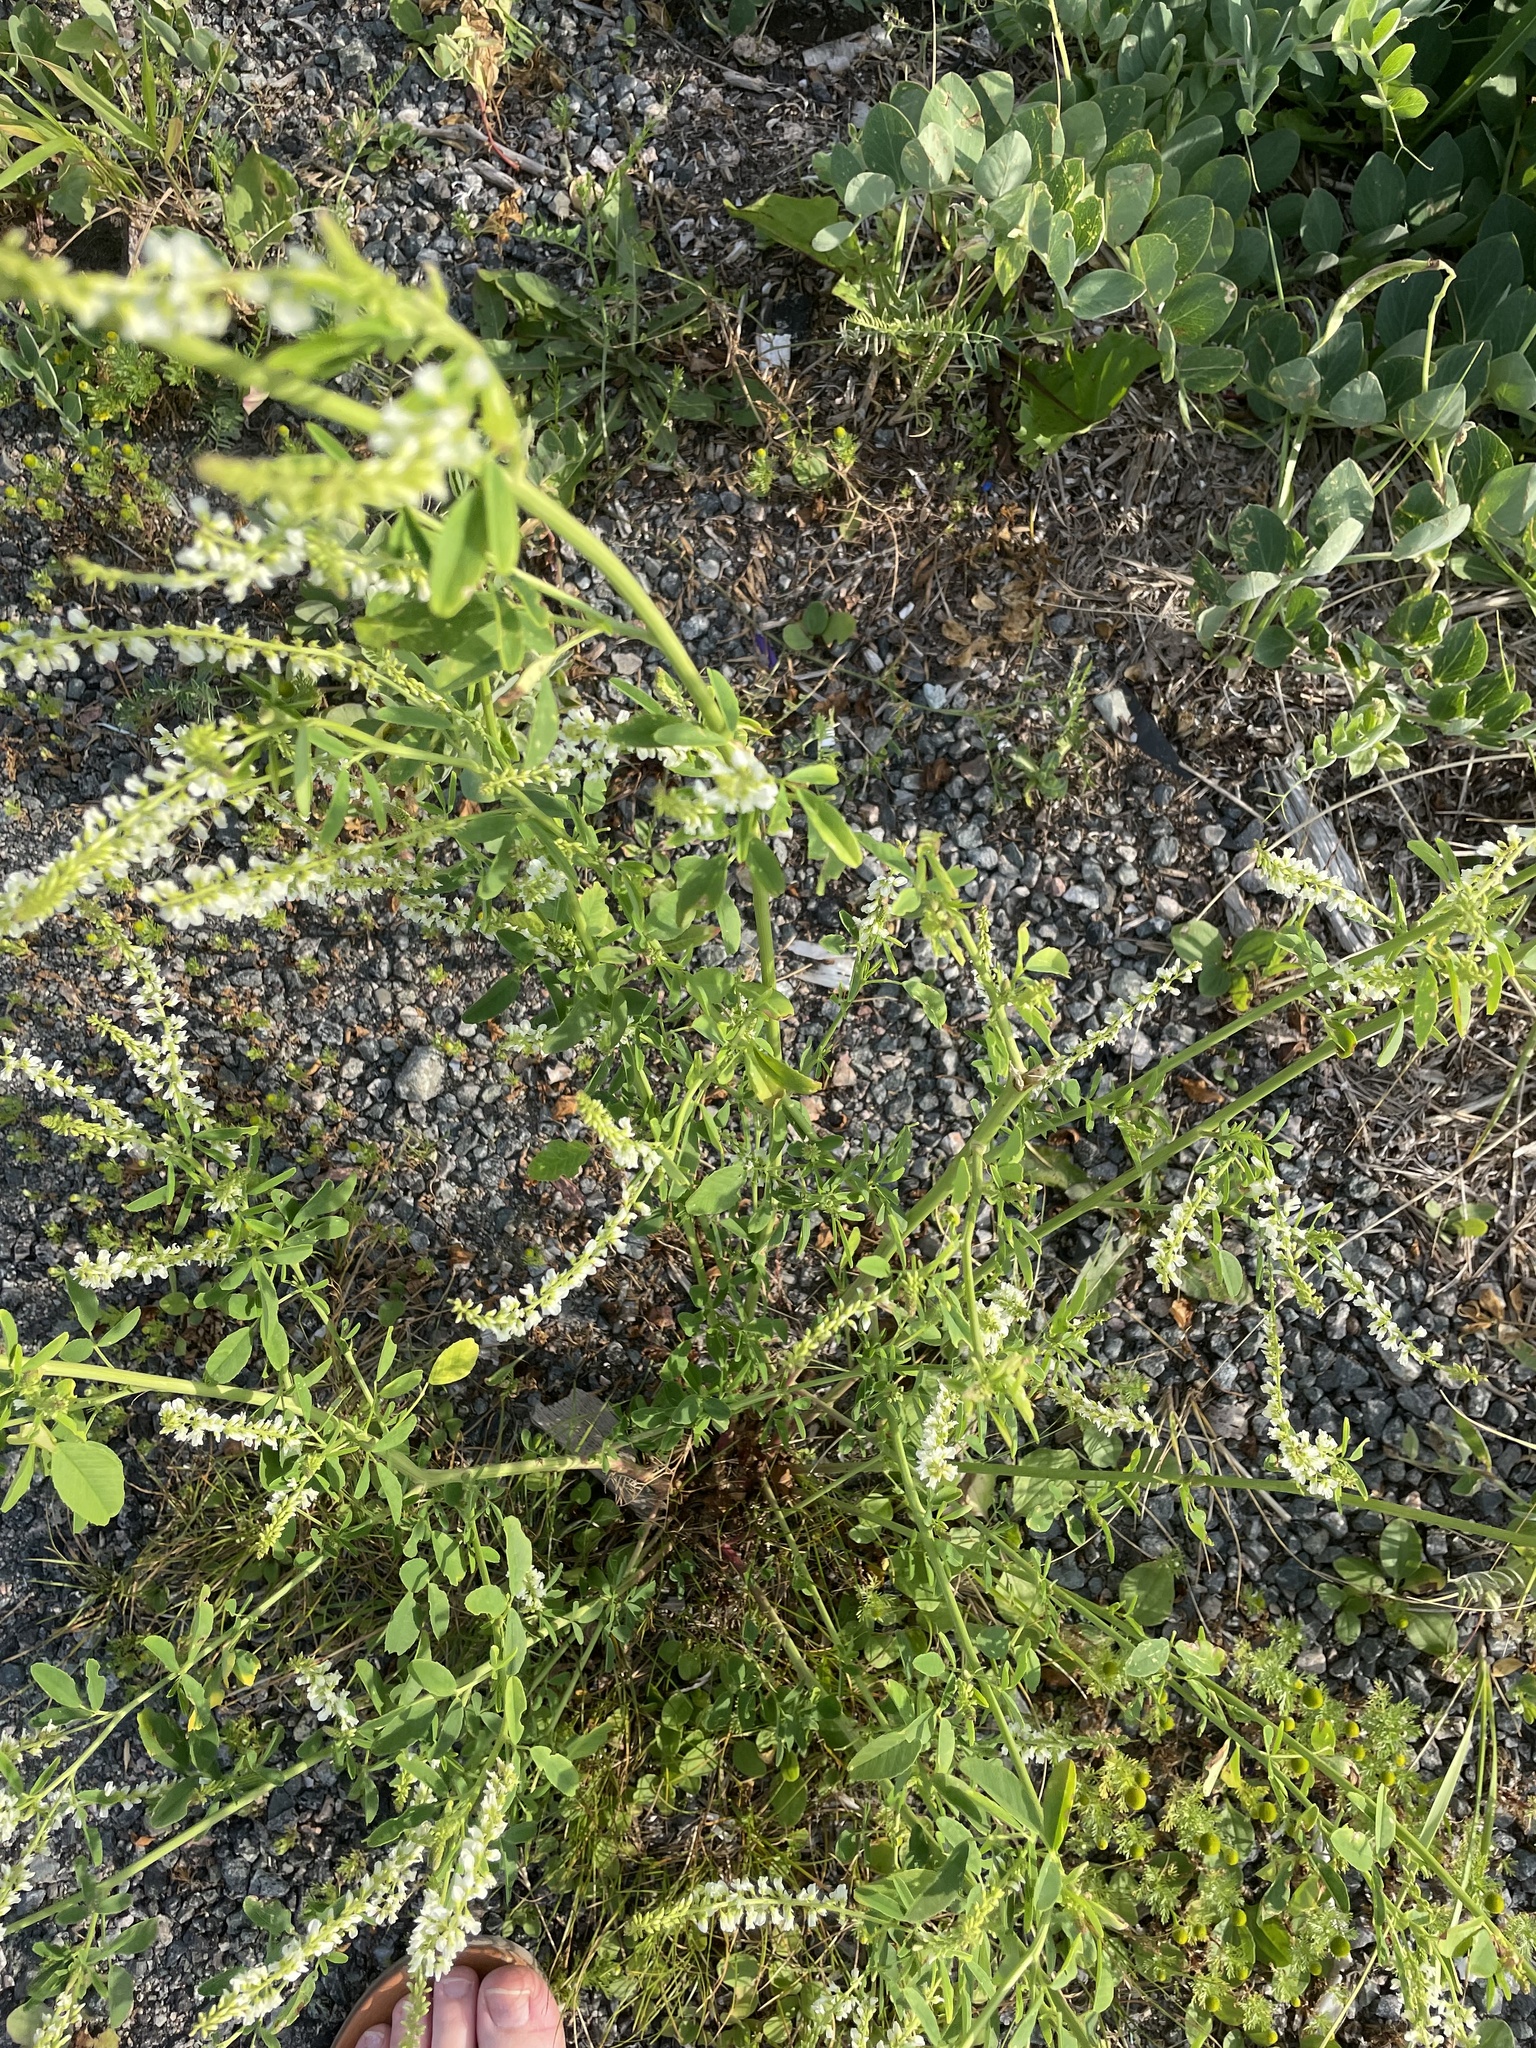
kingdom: Plantae
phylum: Tracheophyta
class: Magnoliopsida
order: Fabales
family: Fabaceae
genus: Melilotus
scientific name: Melilotus albus
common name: White melilot
